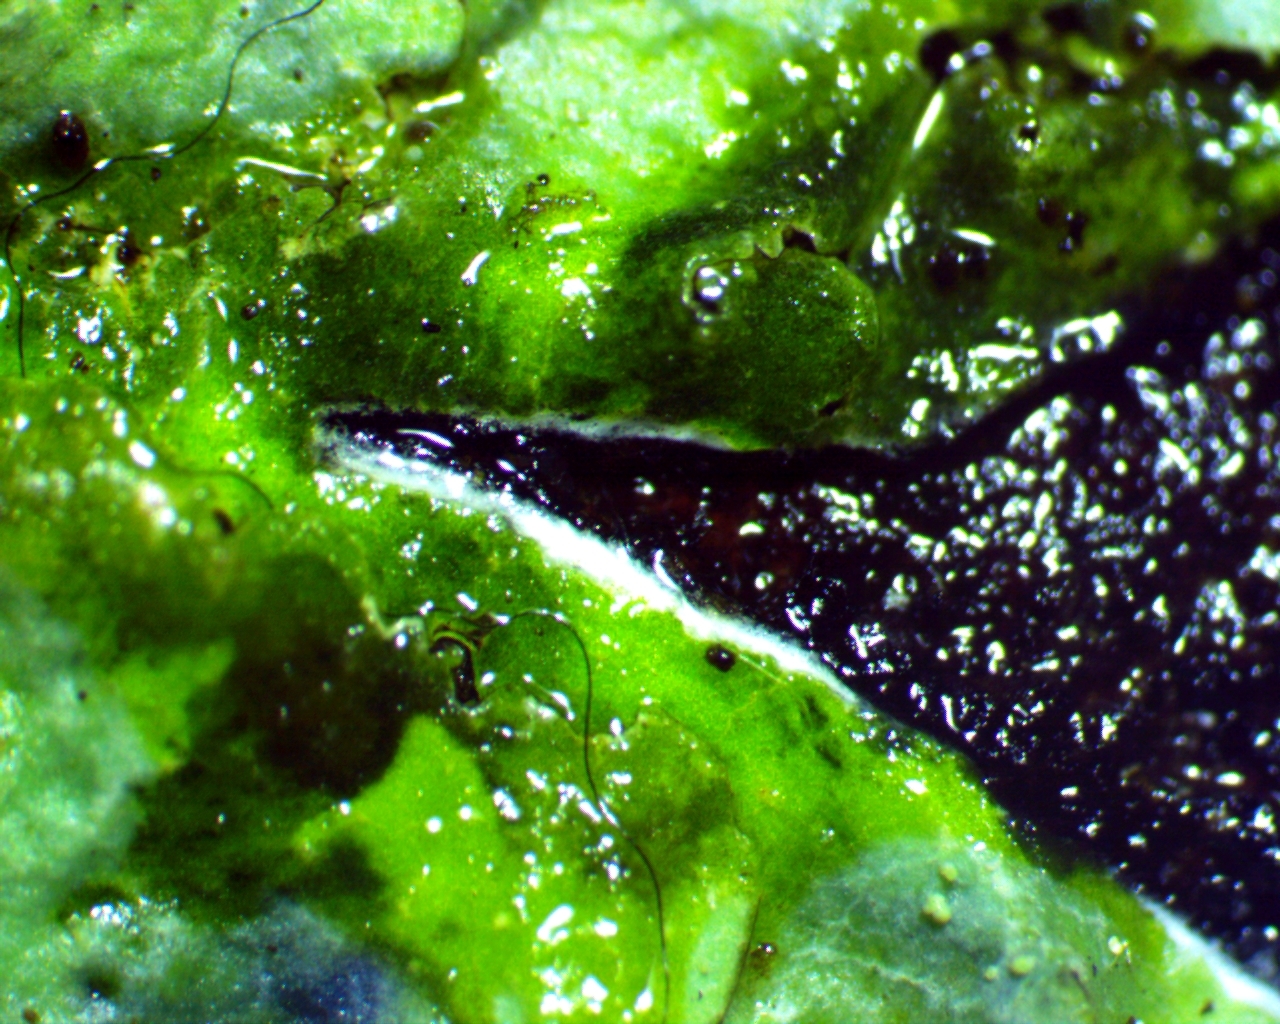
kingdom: Fungi
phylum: Ascomycota
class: Lecanoromycetes
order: Lecanorales
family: Parmeliaceae
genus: Canoparmelia
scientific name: Canoparmelia caroliniana
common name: Carolina shield lichen
